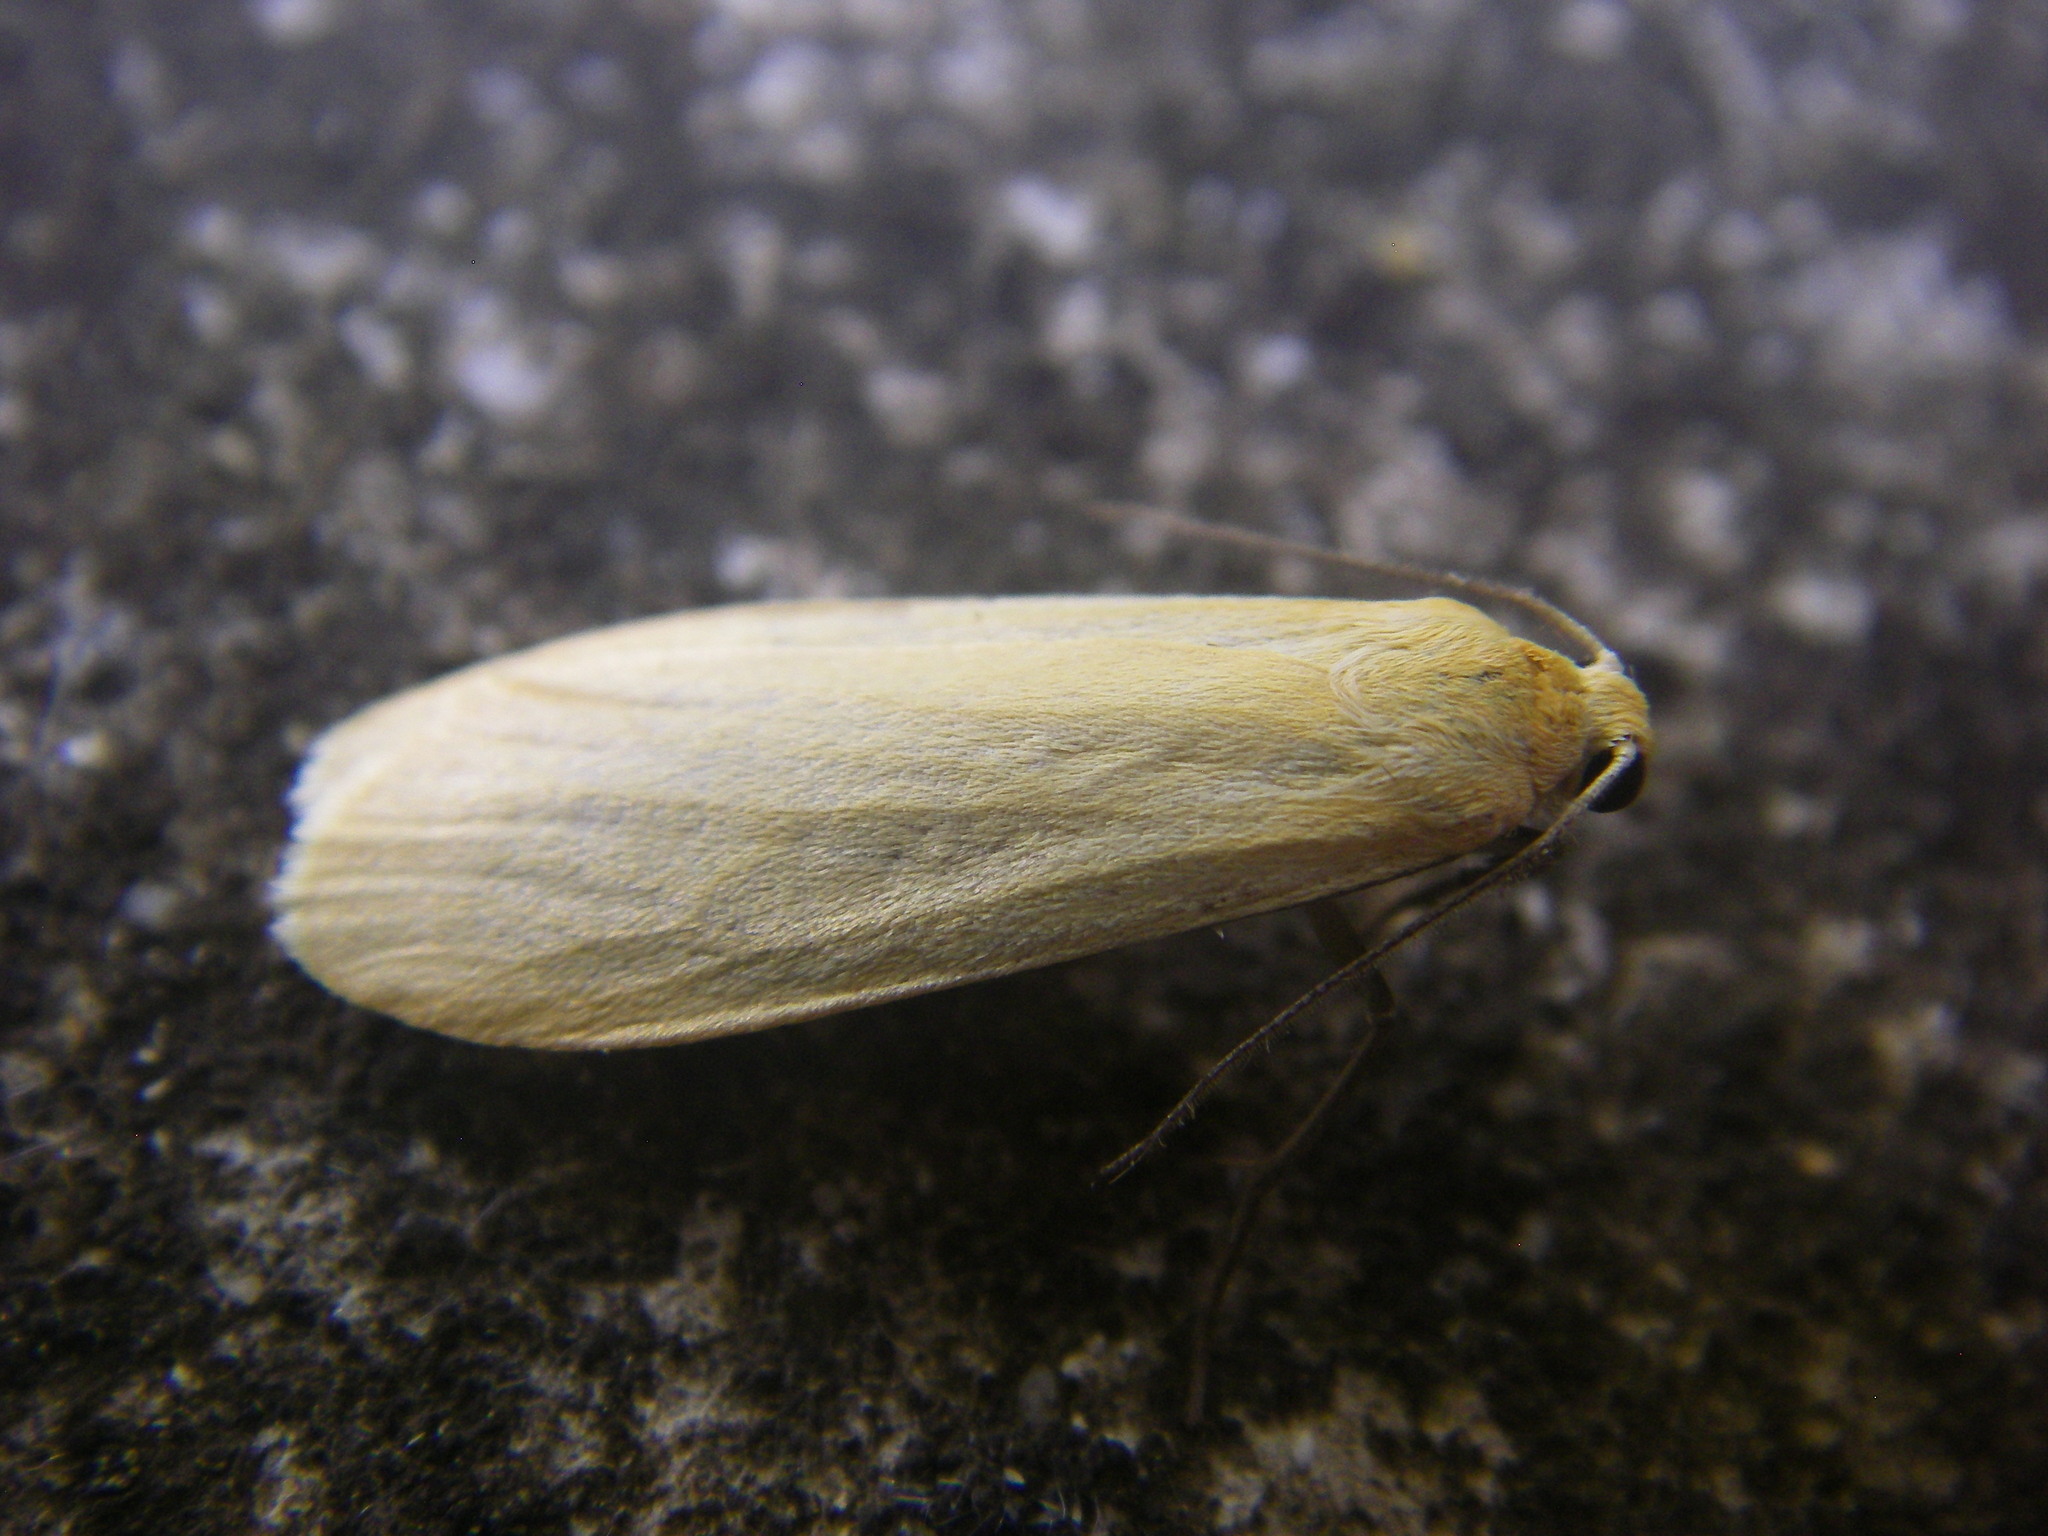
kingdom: Animalia
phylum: Arthropoda
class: Insecta
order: Lepidoptera
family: Erebidae
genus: Wittia
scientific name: Wittia sororcula
